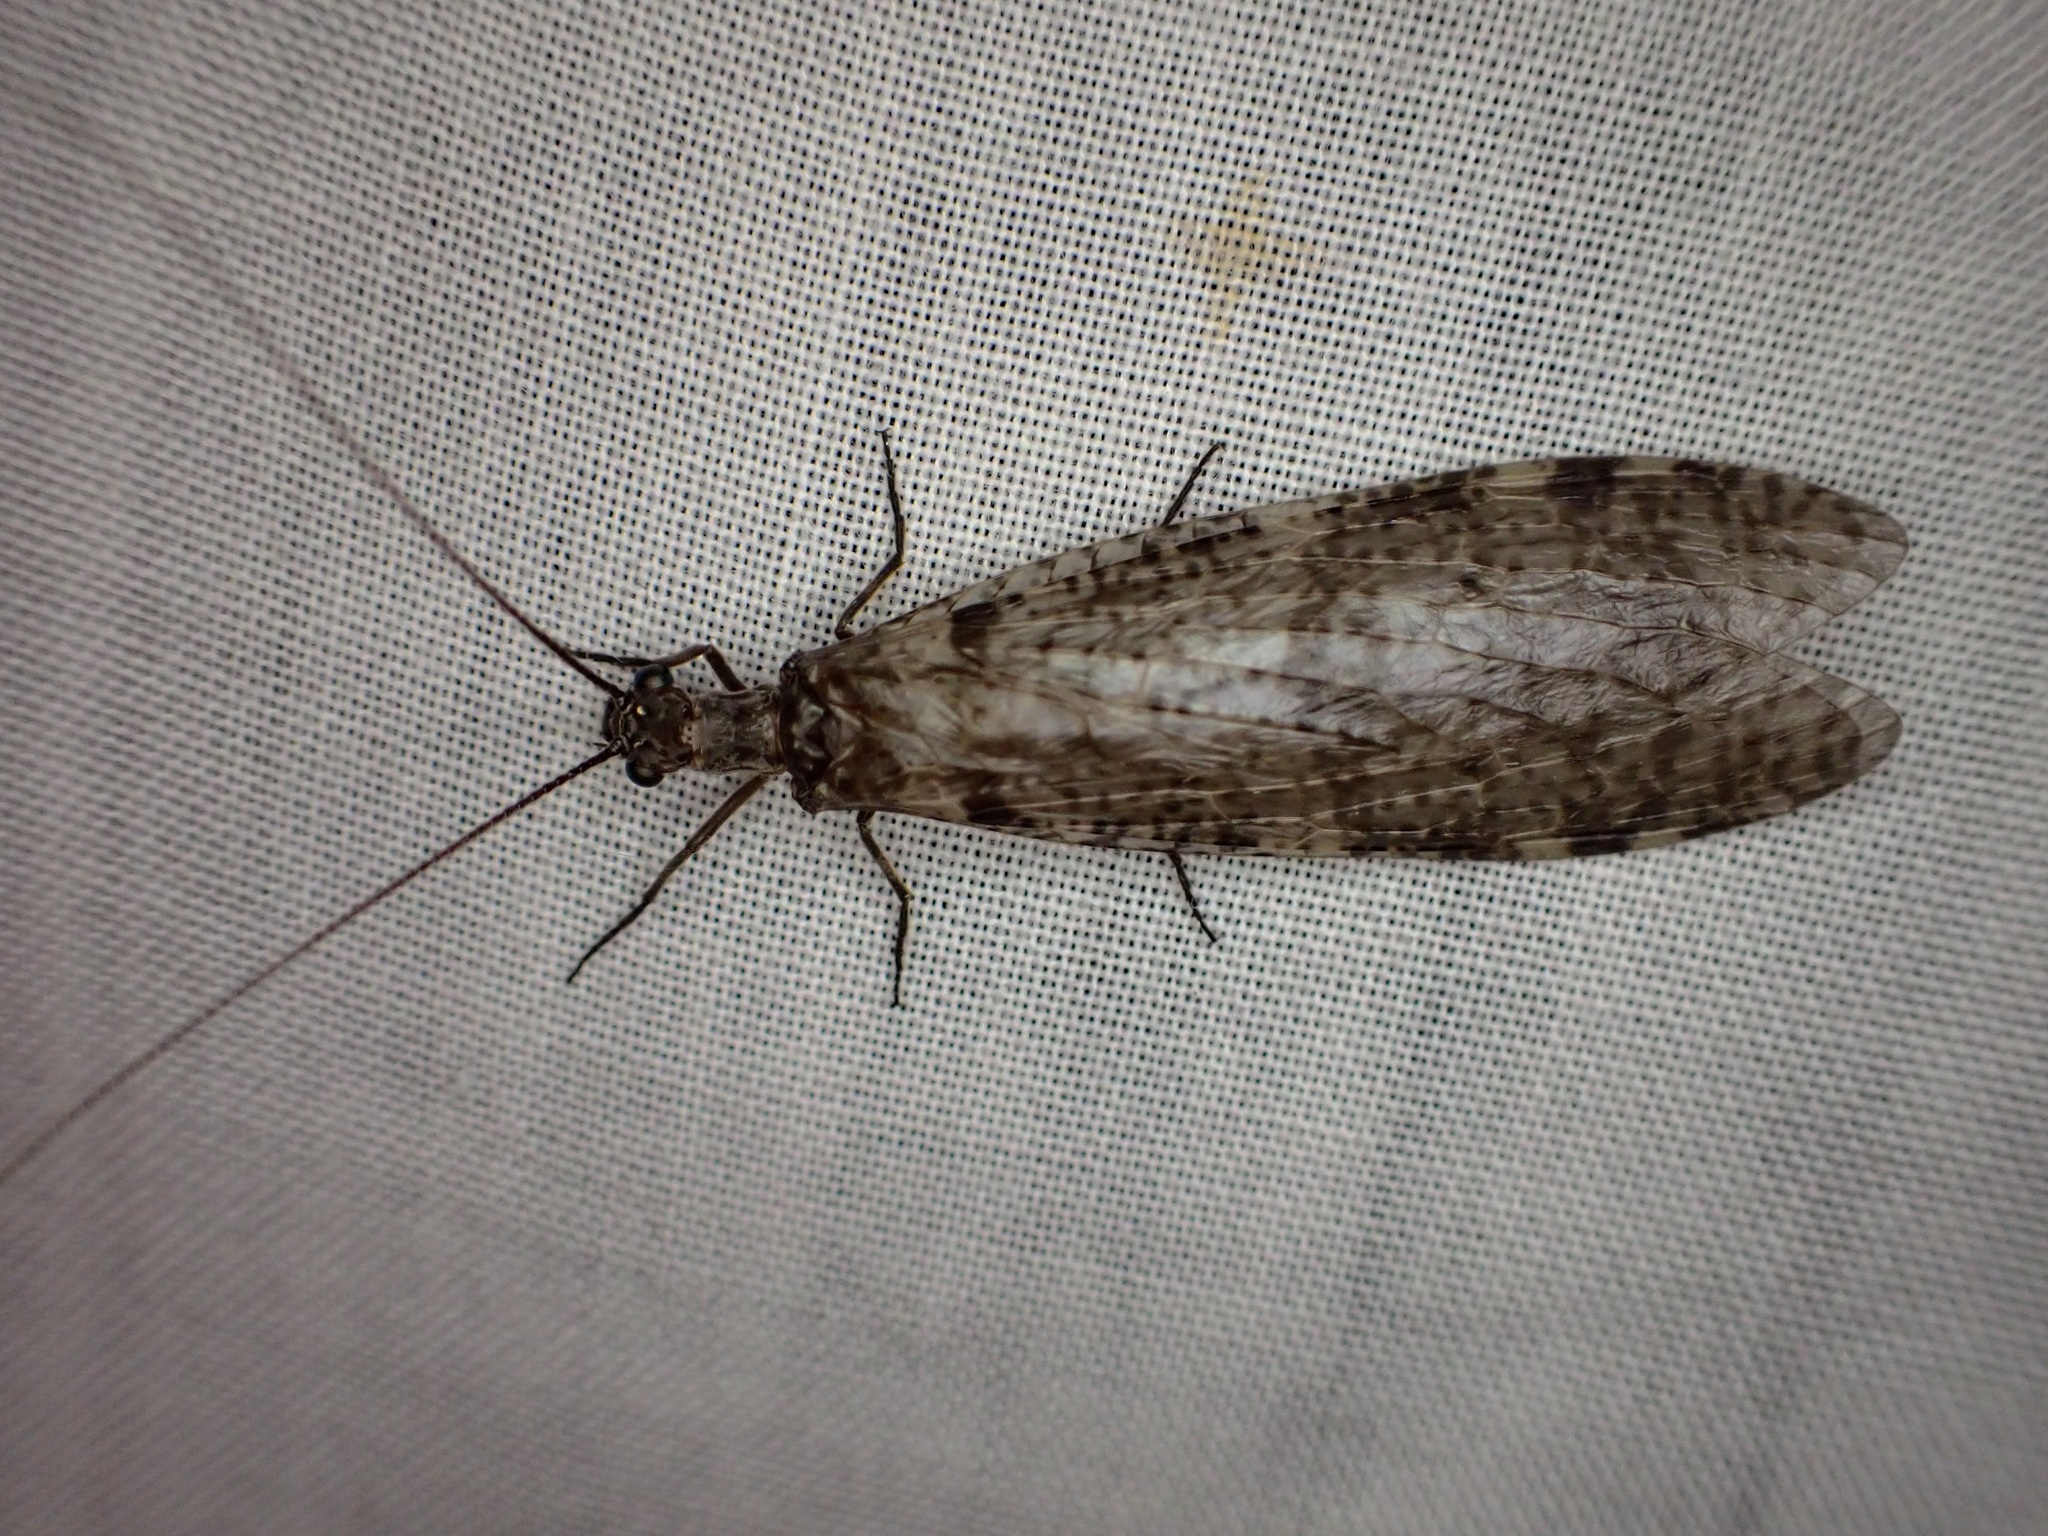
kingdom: Animalia
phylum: Arthropoda
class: Insecta
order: Megaloptera
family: Corydalidae
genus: Archichauliodes
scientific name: Archichauliodes diversus
